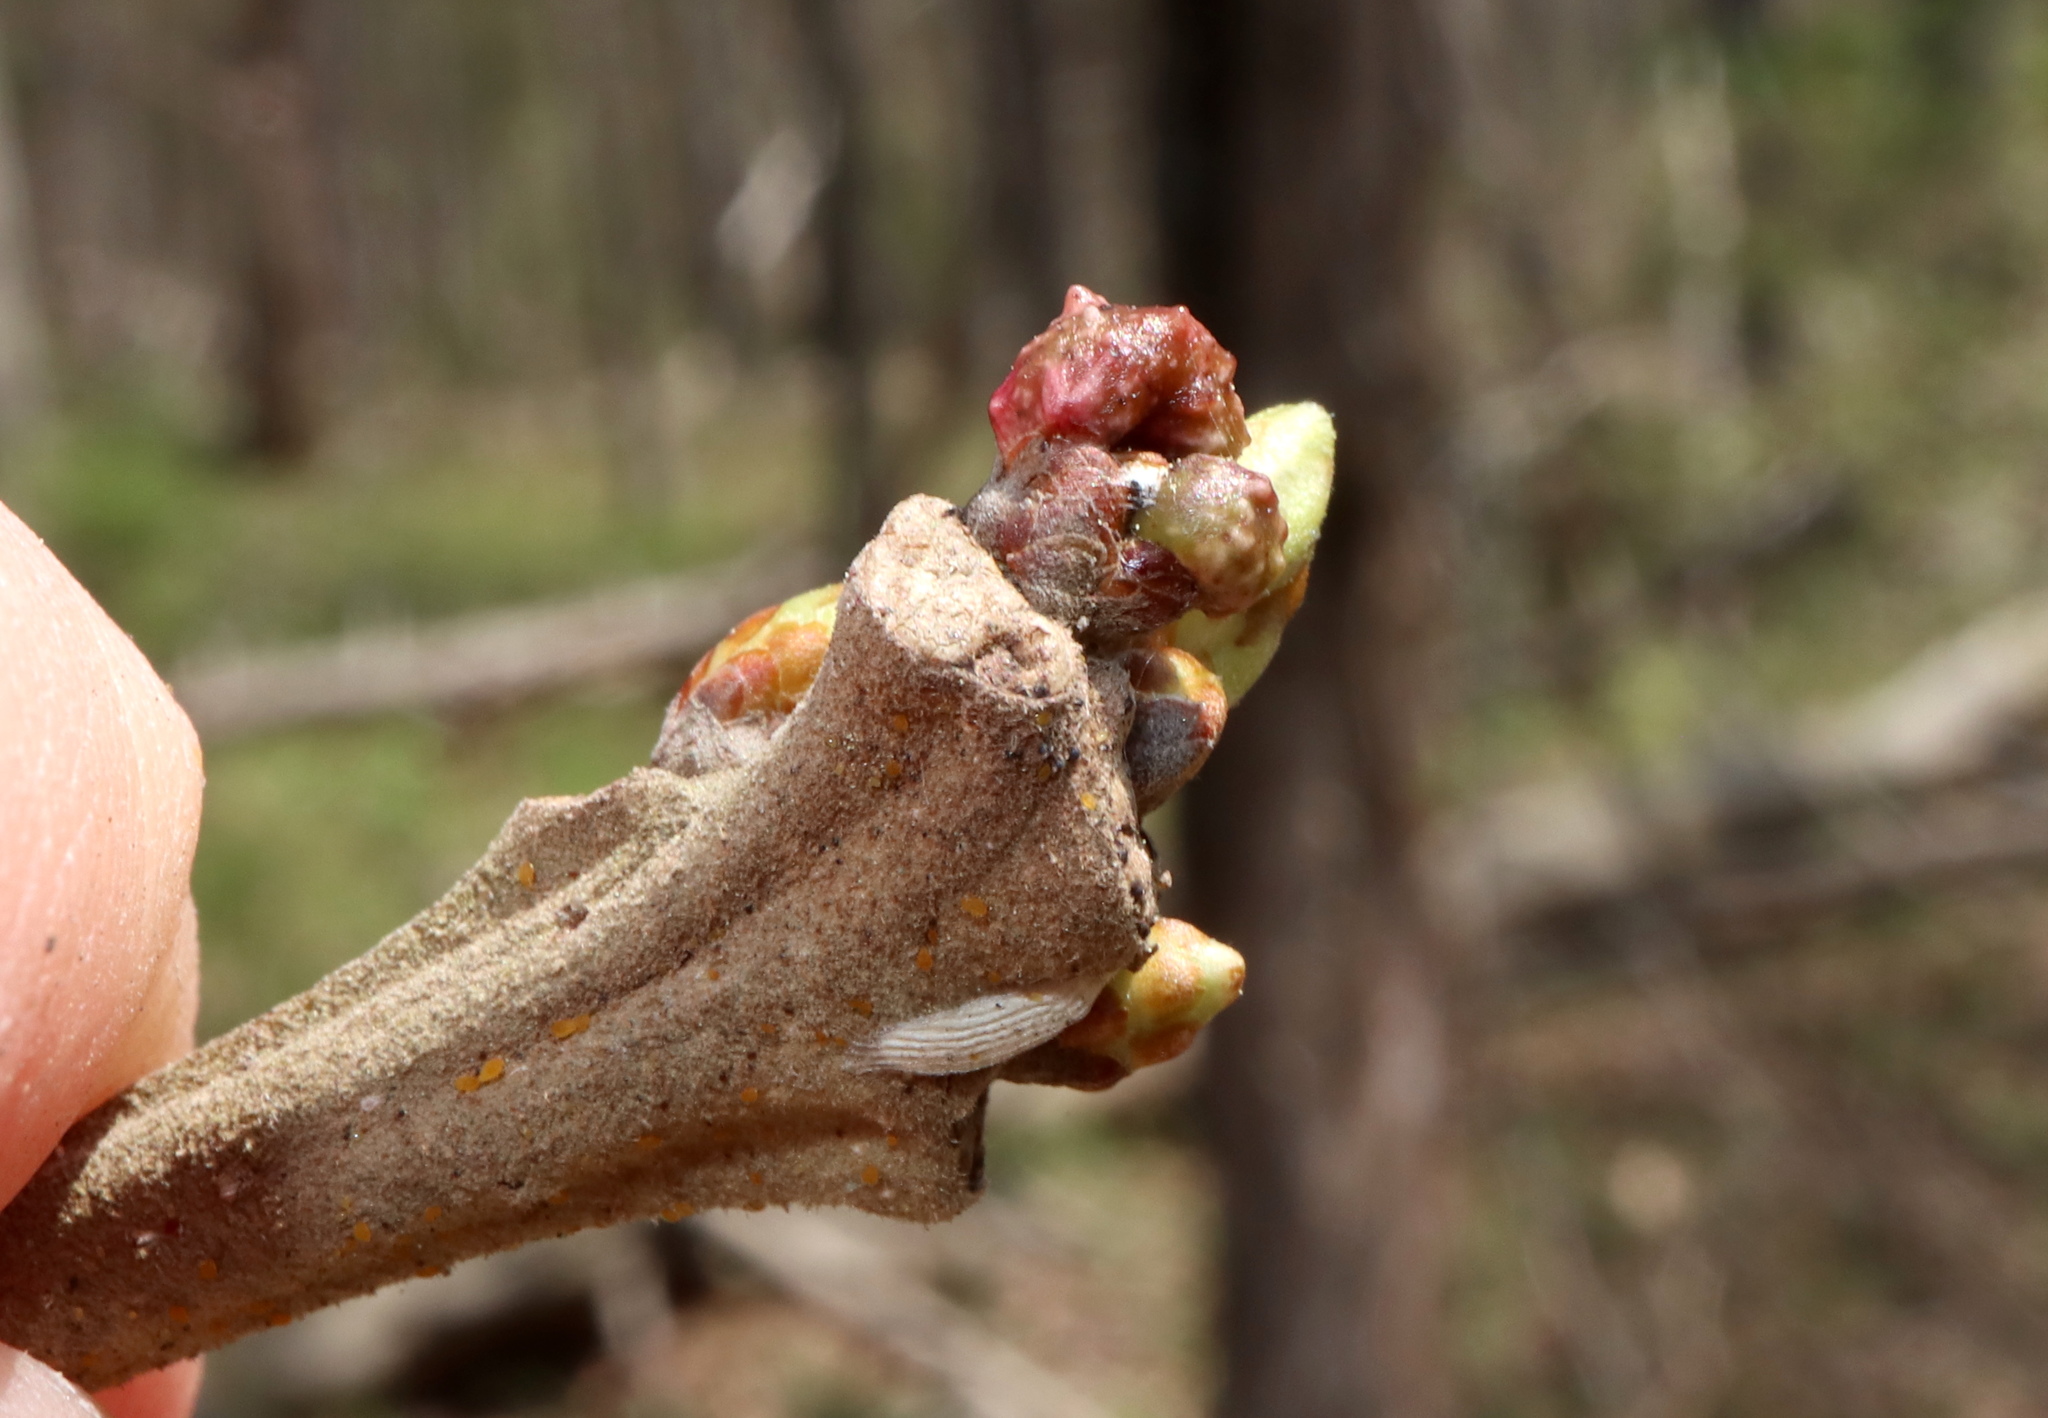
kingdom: Animalia
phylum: Arthropoda
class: Insecta
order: Hymenoptera
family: Cynipidae
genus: Andricus
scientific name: Andricus
